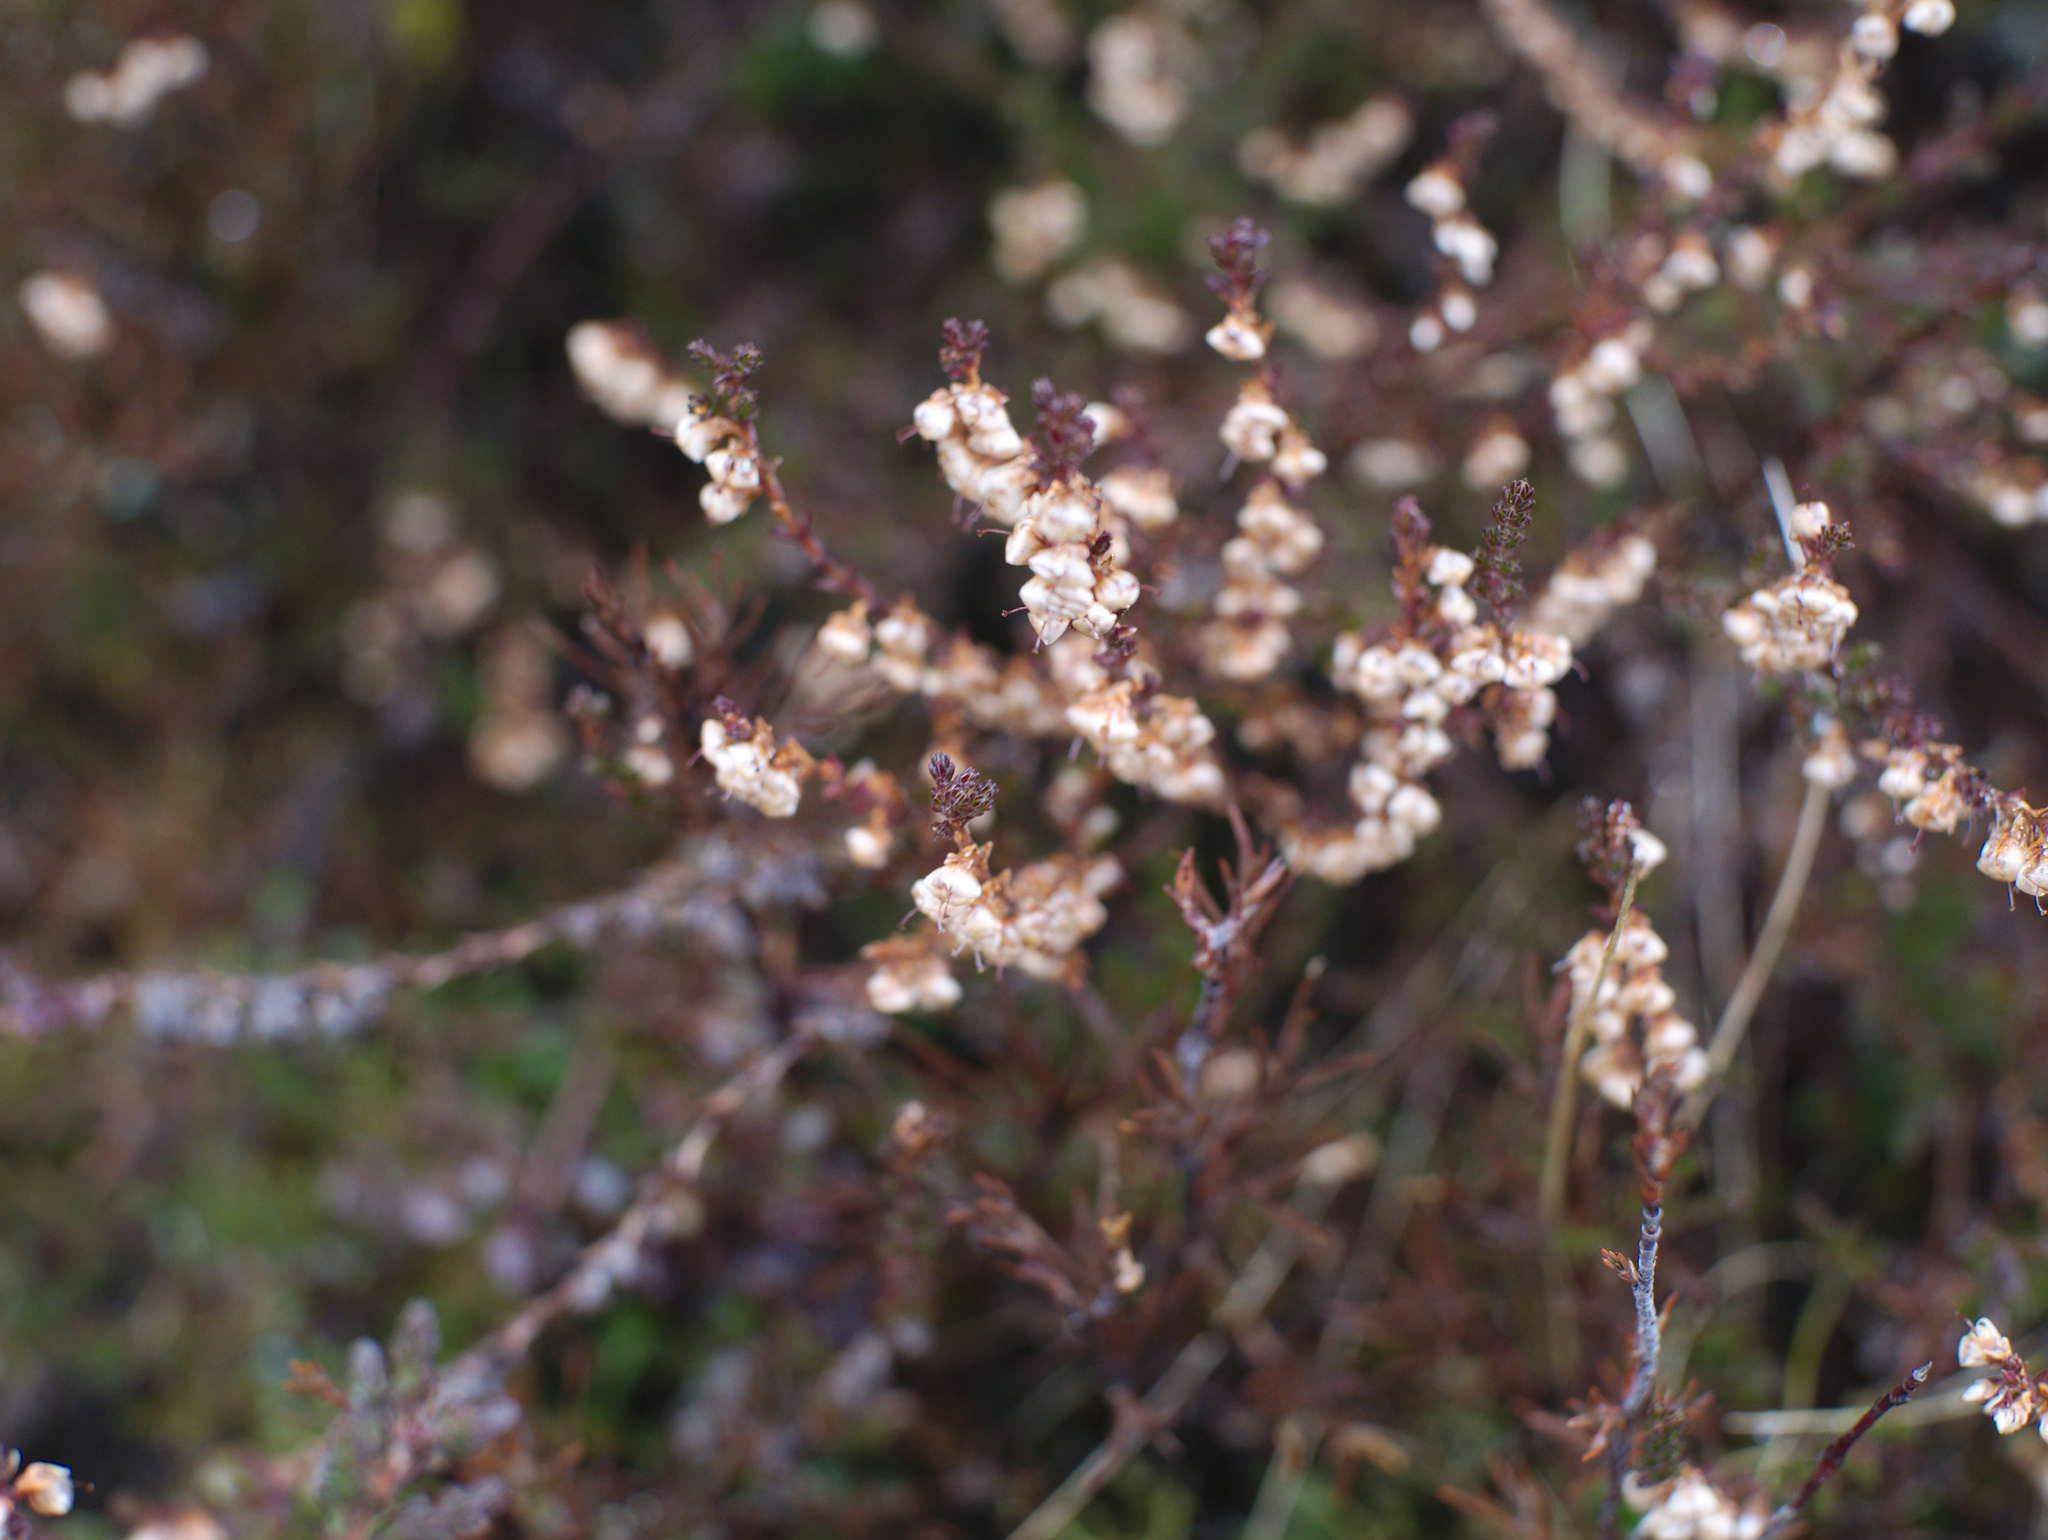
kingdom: Plantae
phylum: Tracheophyta
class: Magnoliopsida
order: Ericales
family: Ericaceae
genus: Dracophyllum
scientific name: Dracophyllum subulatum
